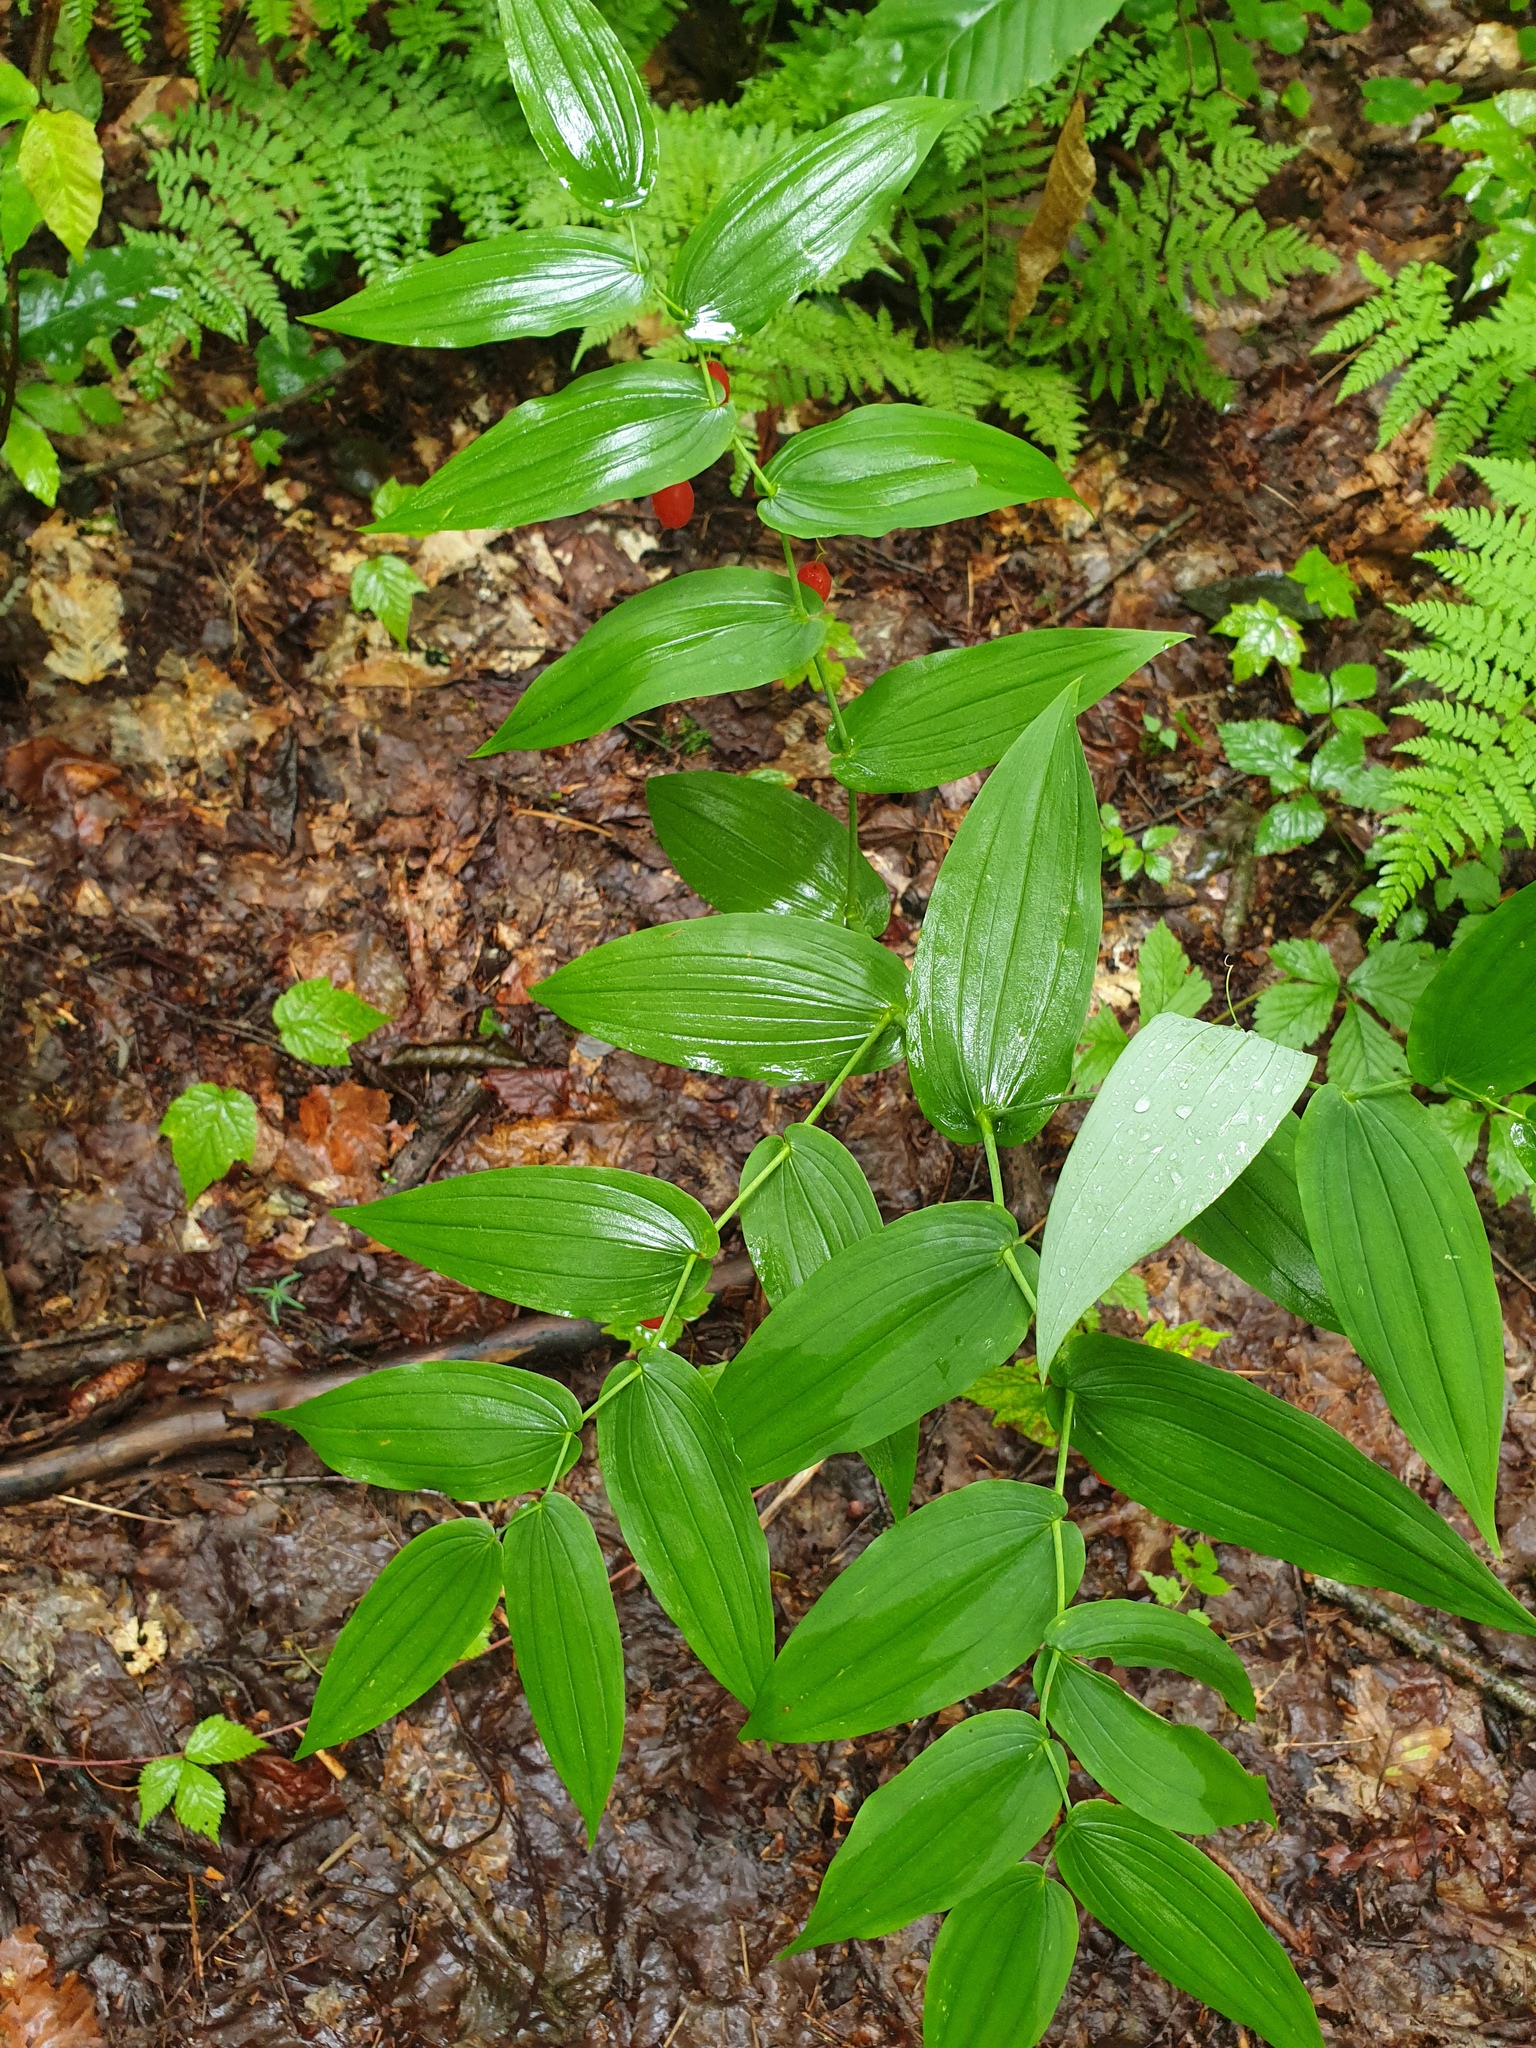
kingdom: Plantae
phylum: Tracheophyta
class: Liliopsida
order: Liliales
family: Liliaceae
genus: Streptopus
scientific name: Streptopus amplexifolius
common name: Clasp twisted stalk
